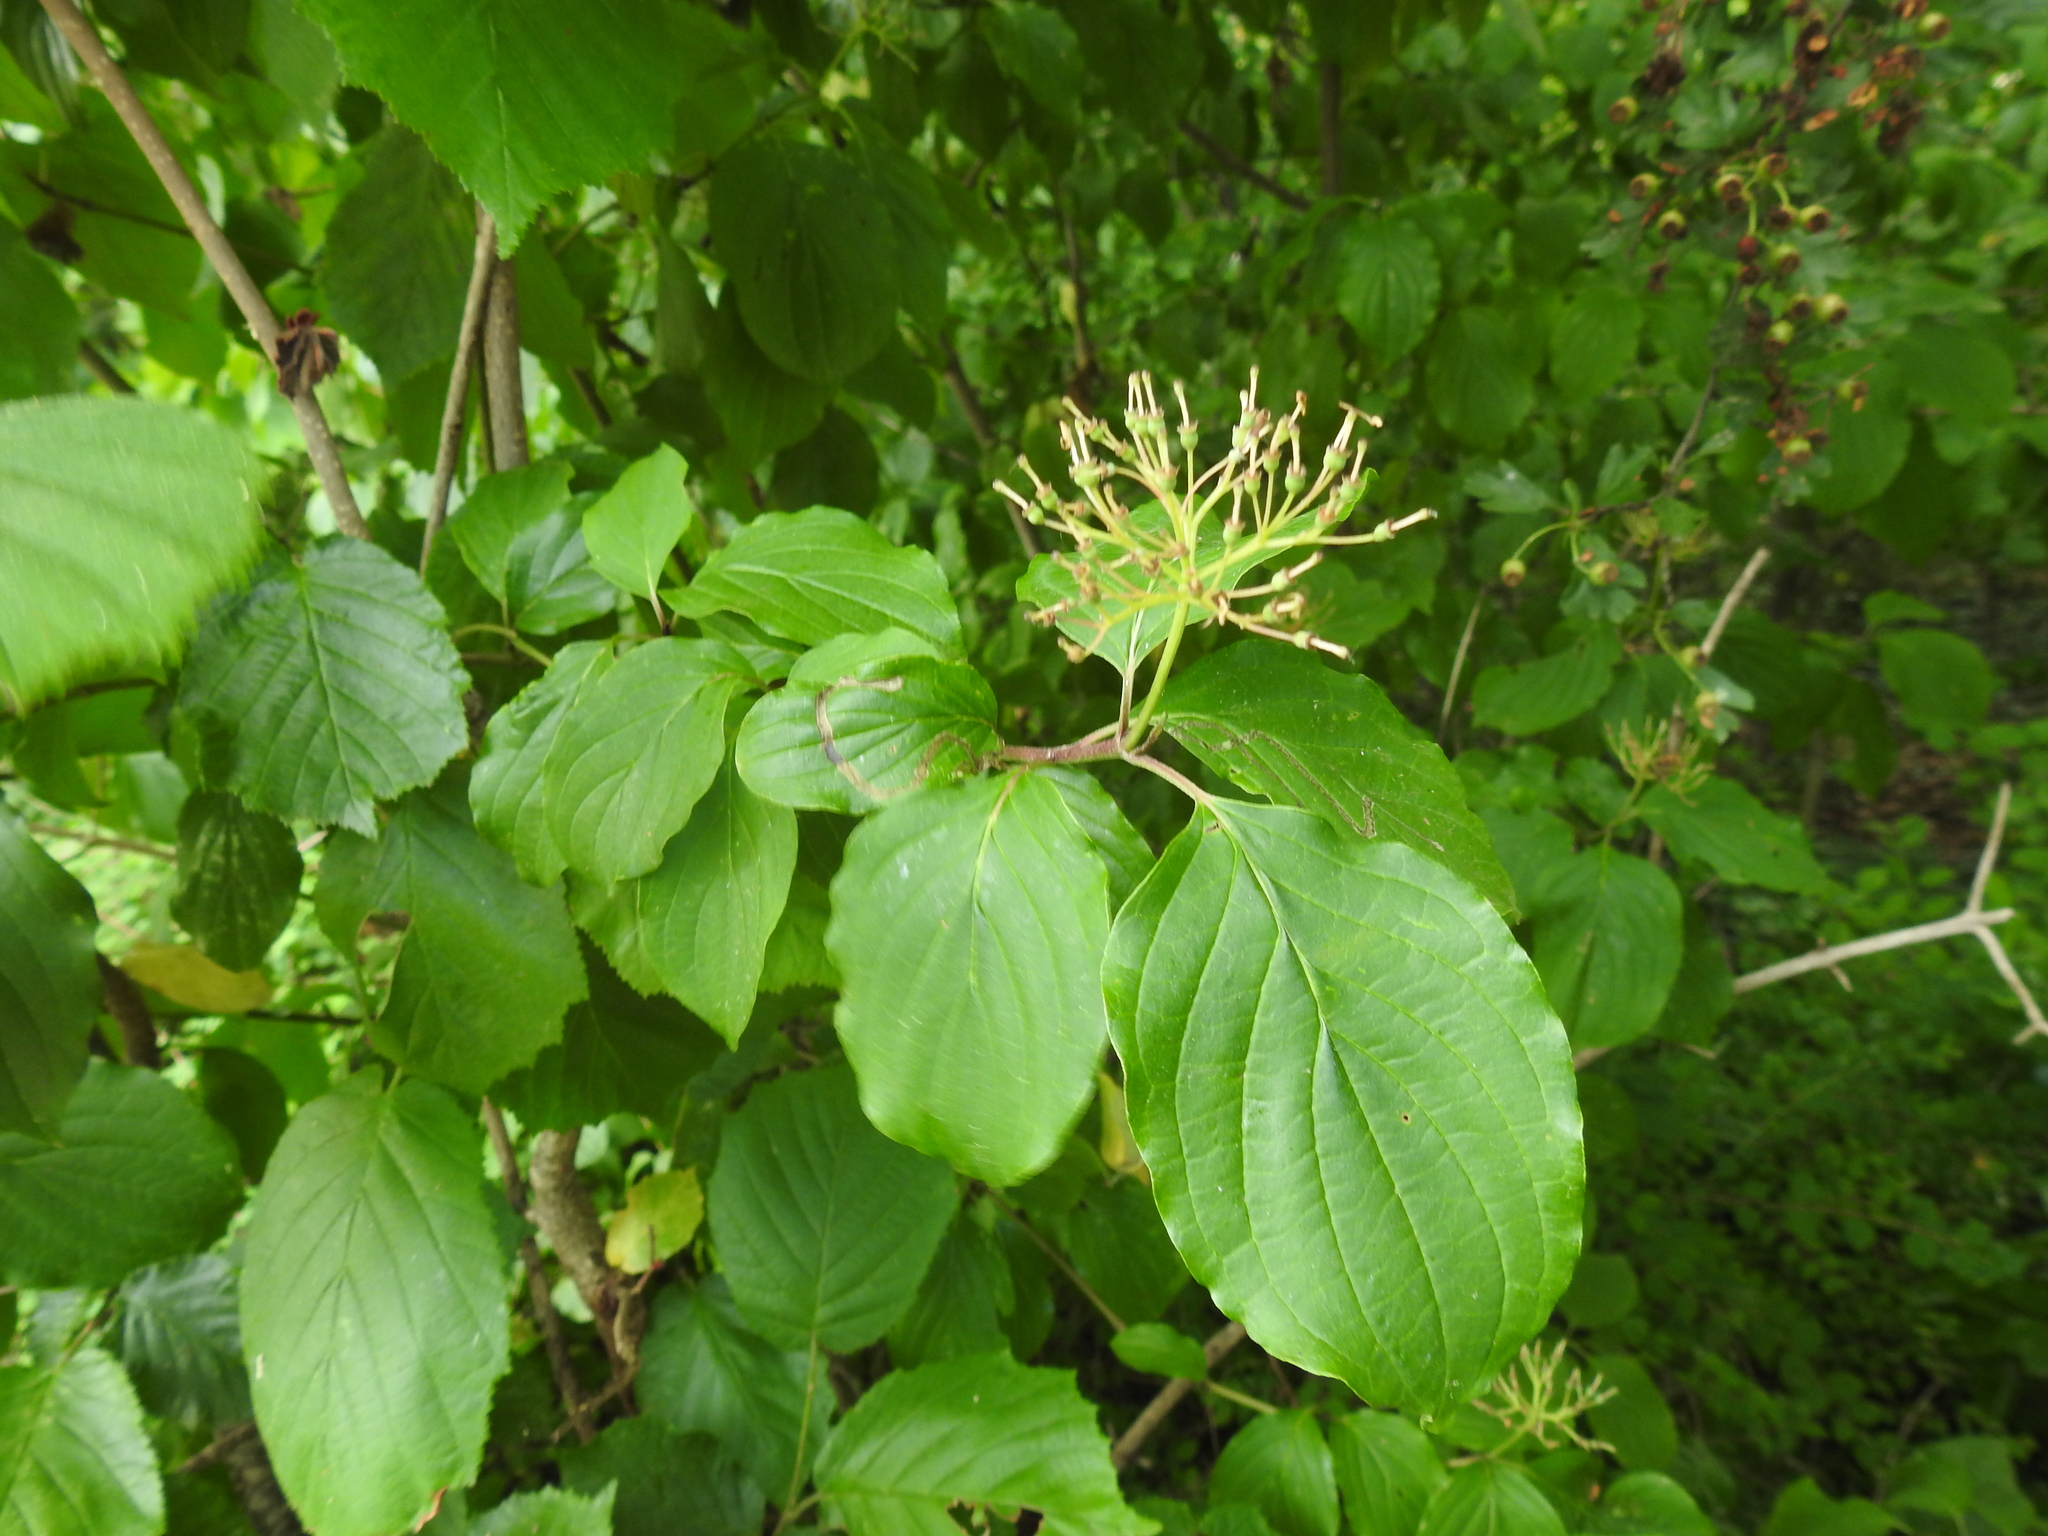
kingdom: Plantae
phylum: Tracheophyta
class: Magnoliopsida
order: Cornales
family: Cornaceae
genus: Cornus
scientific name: Cornus sanguinea
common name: Dogwood
